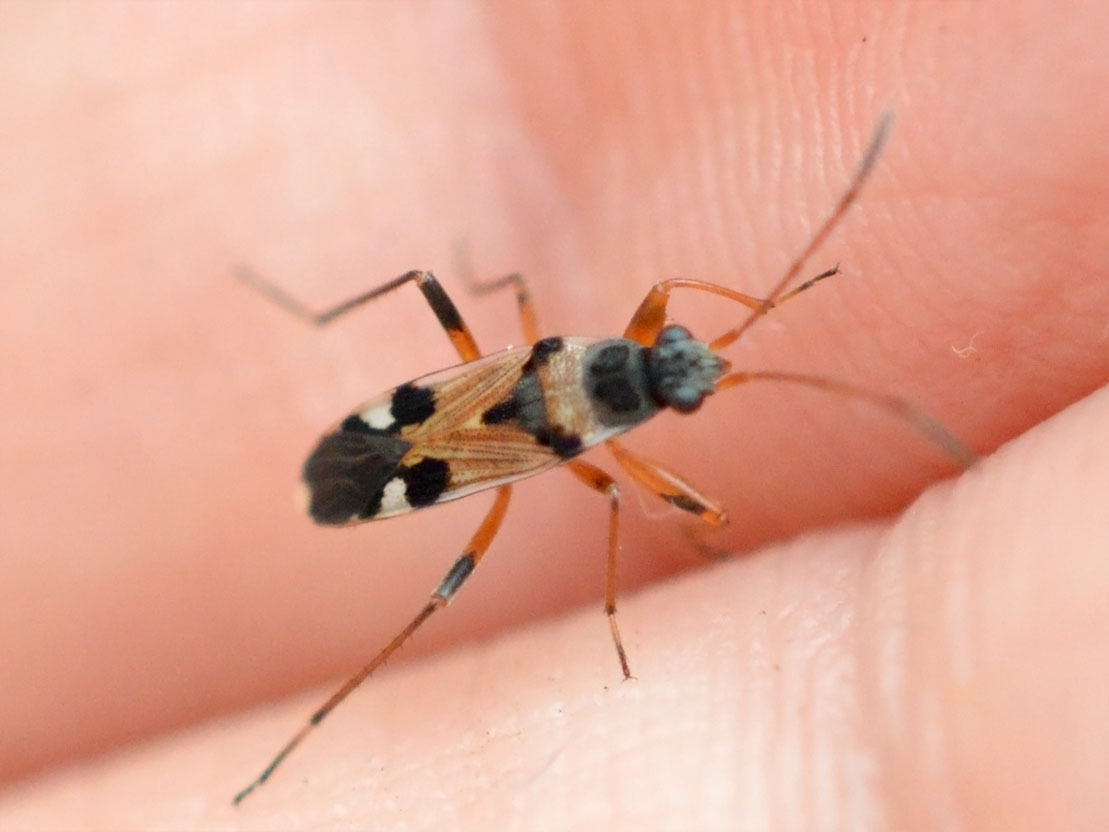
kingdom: Animalia
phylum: Arthropoda
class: Insecta
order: Hemiptera
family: Rhyparochromidae
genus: Beosus
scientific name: Beosus quadripunctatus
